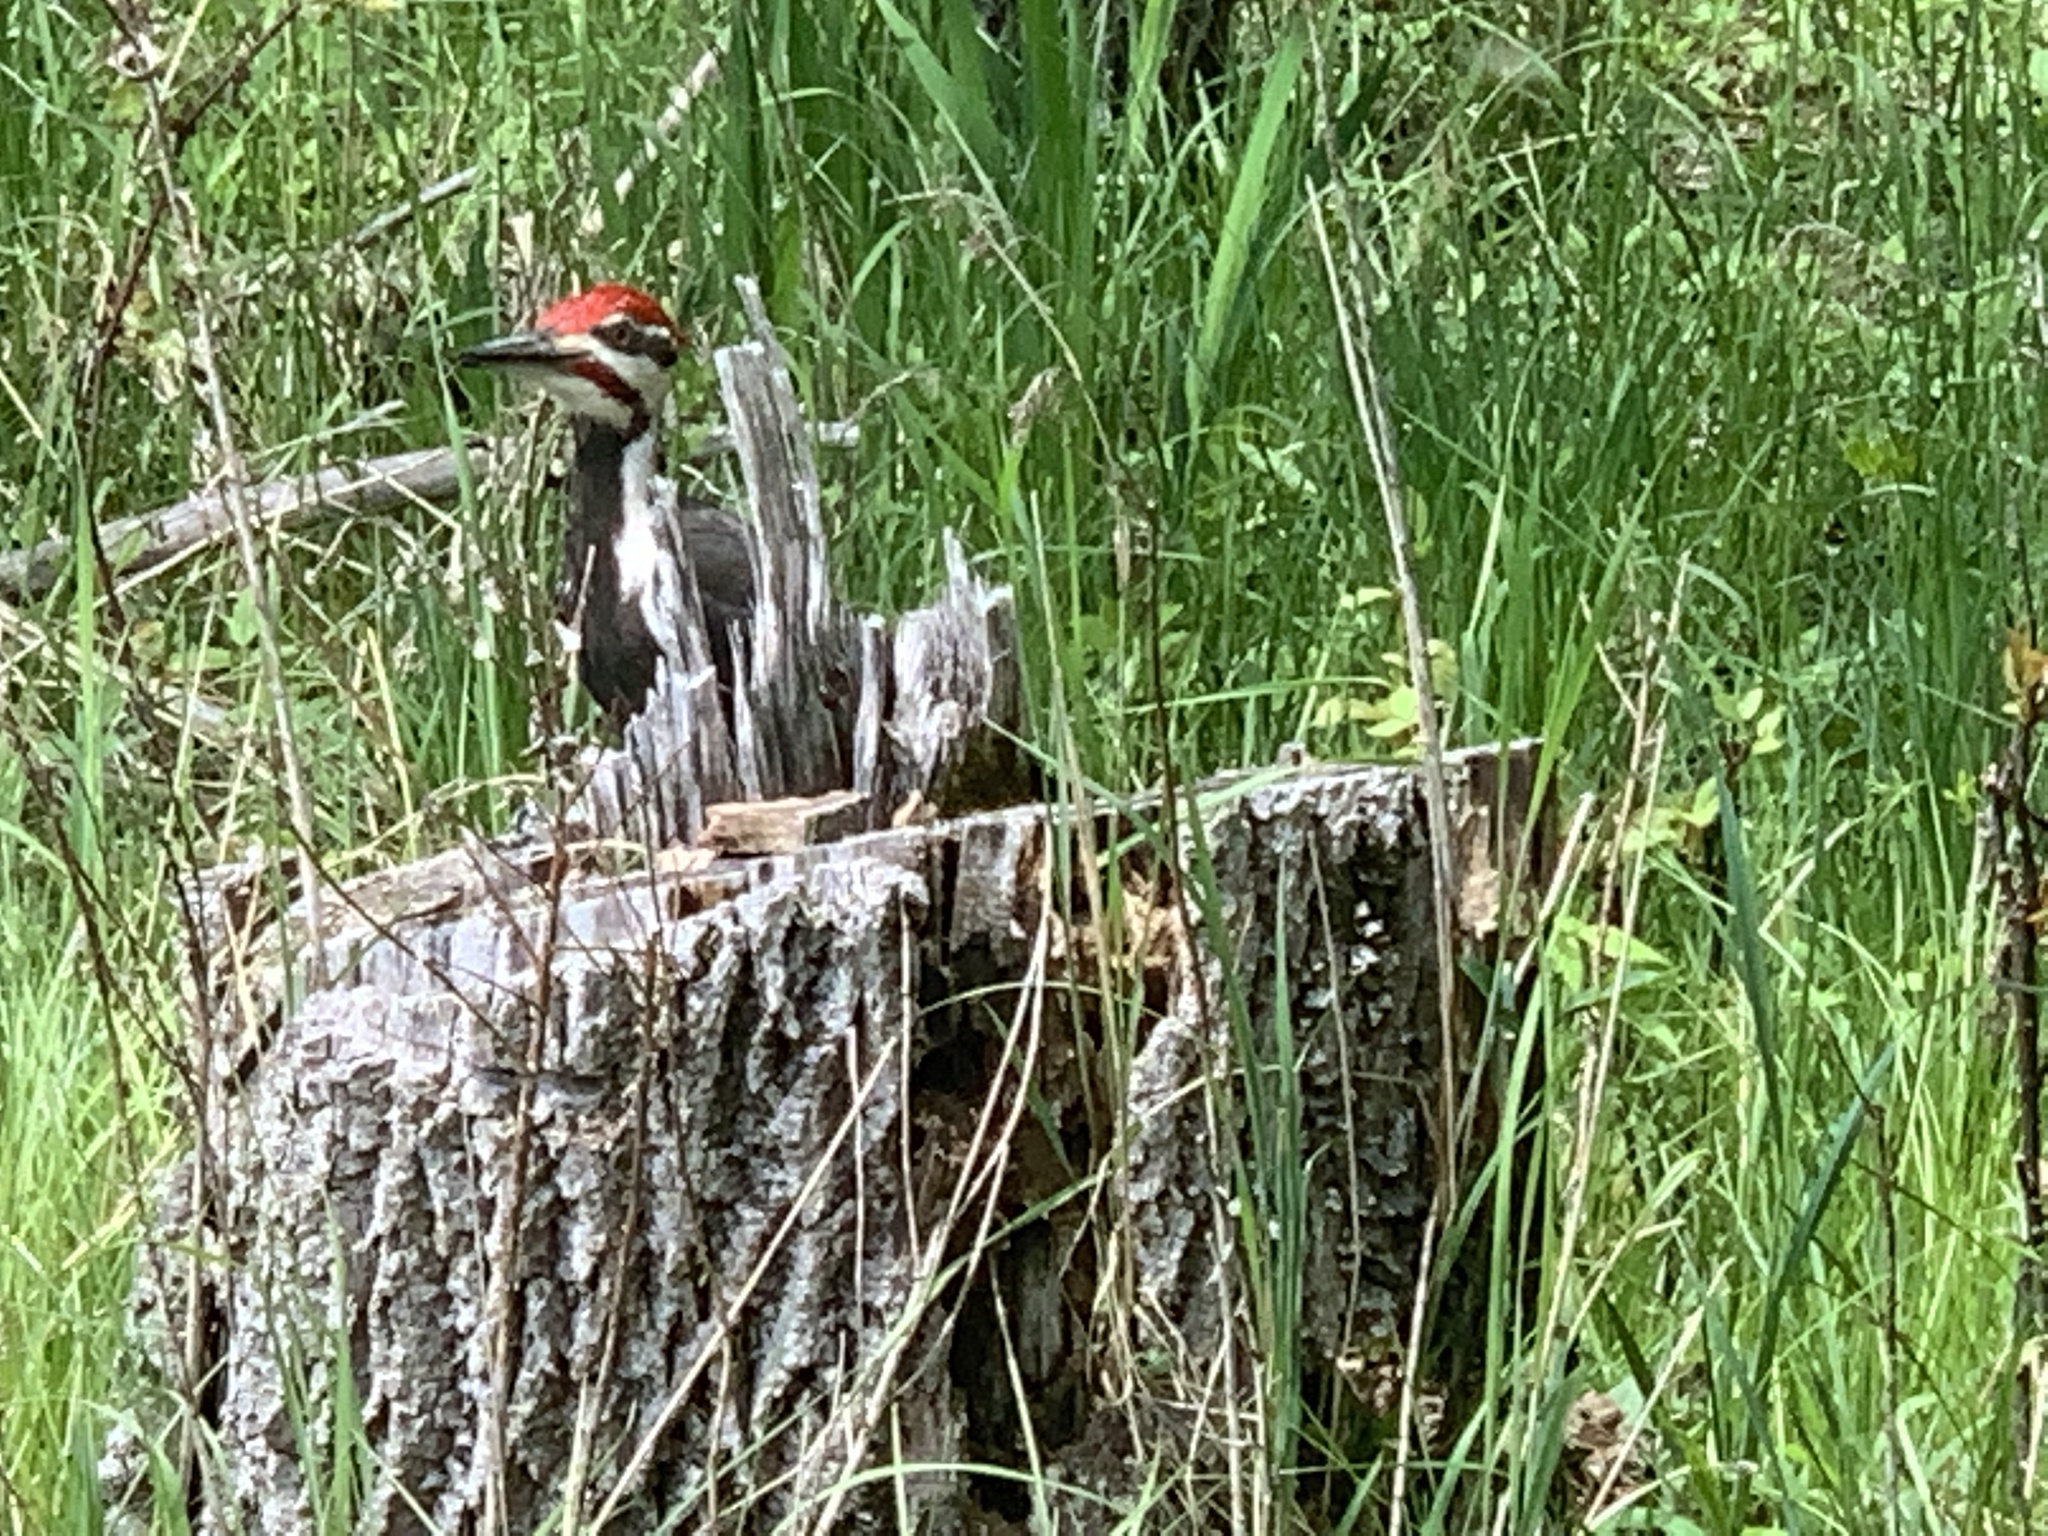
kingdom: Animalia
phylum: Chordata
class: Aves
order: Piciformes
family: Picidae
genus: Dryocopus
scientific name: Dryocopus pileatus
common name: Pileated woodpecker
